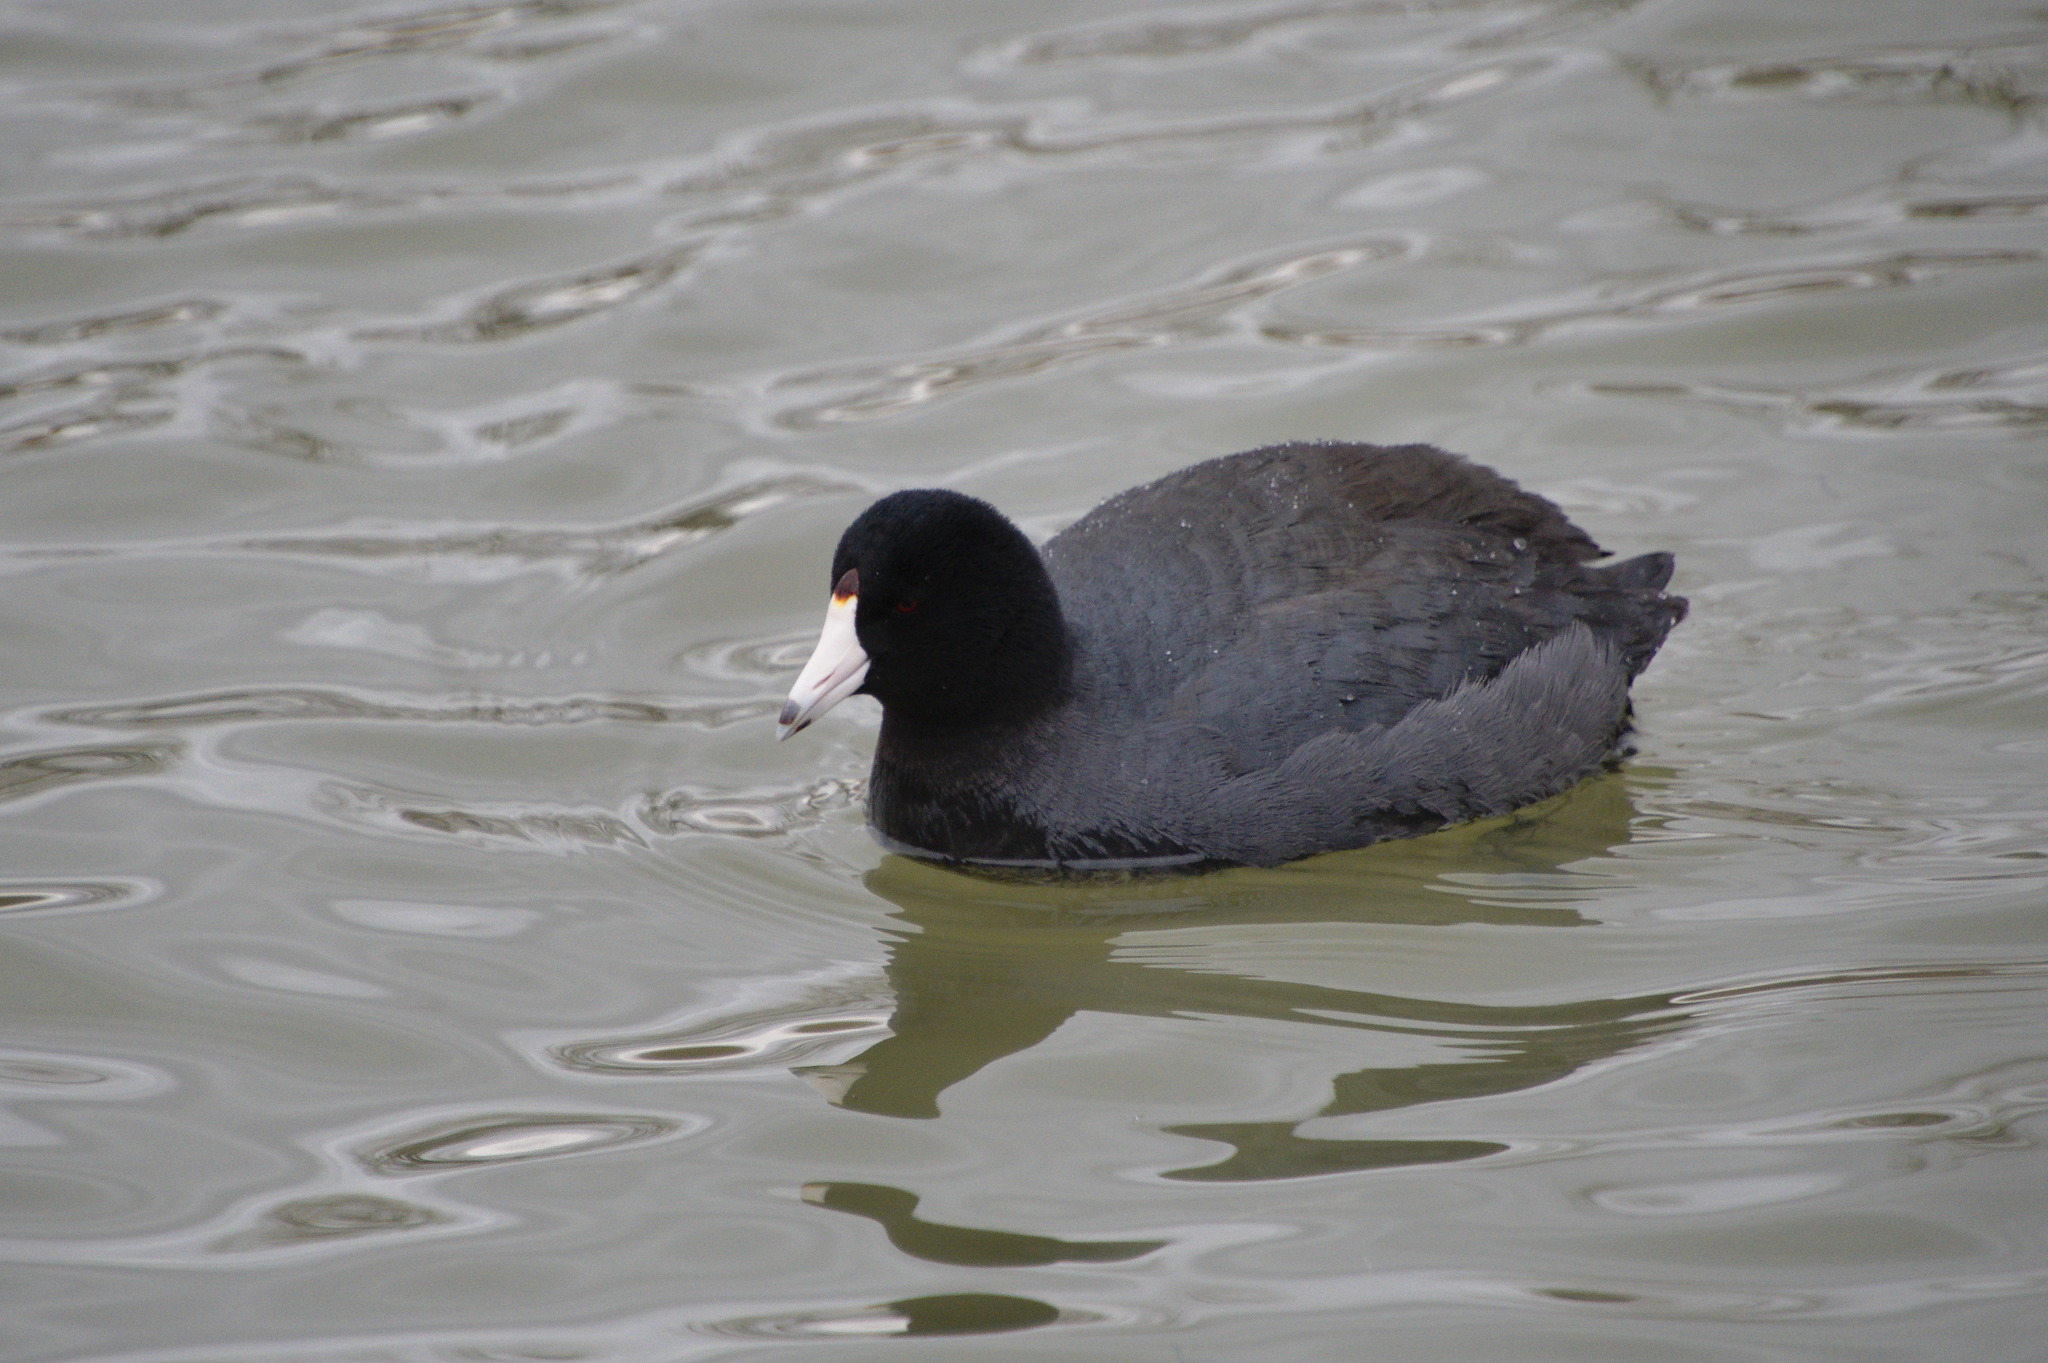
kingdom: Animalia
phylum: Chordata
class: Aves
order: Gruiformes
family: Rallidae
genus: Fulica
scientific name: Fulica americana
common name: American coot
